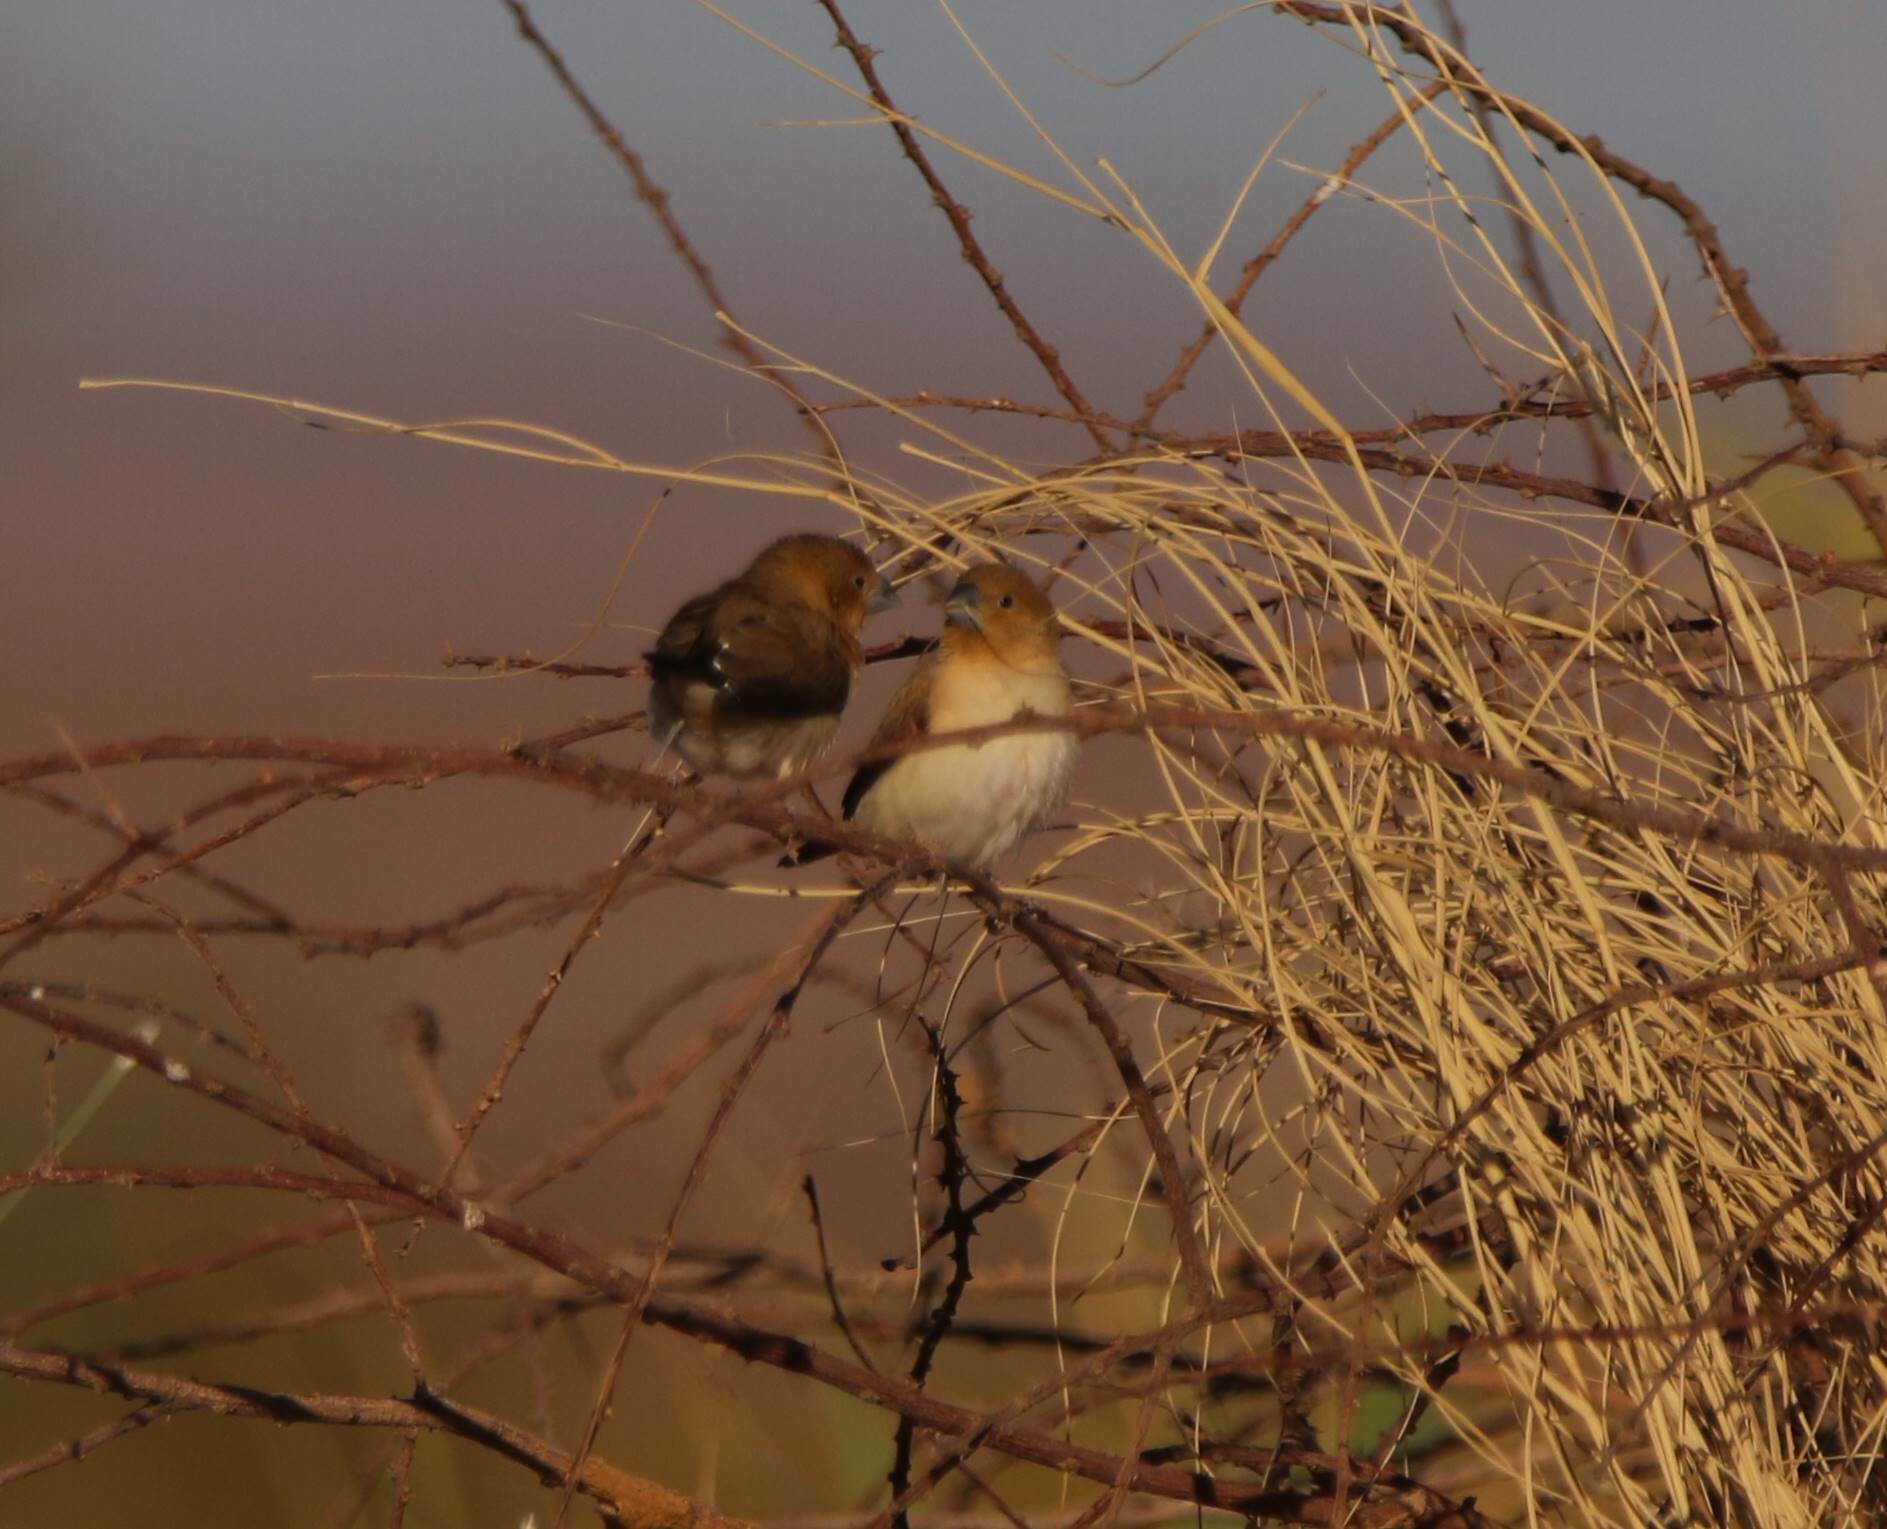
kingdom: Animalia
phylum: Chordata
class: Aves
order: Passeriformes
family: Estrildidae
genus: Euodice
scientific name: Euodice cantans
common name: African silverbill
